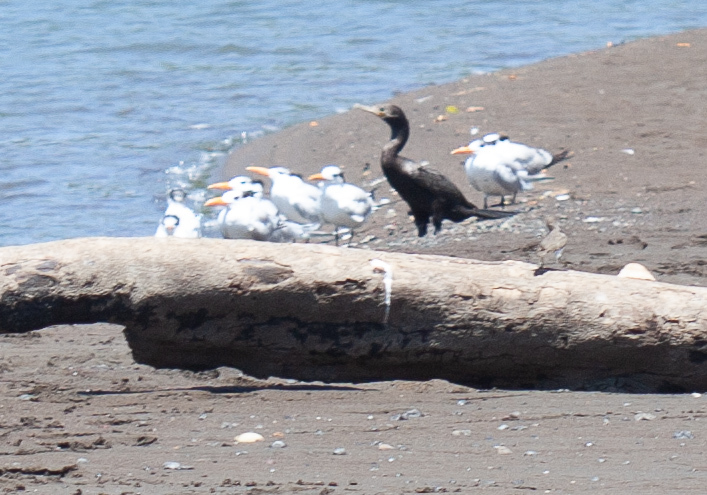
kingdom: Animalia
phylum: Chordata
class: Aves
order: Suliformes
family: Phalacrocoracidae
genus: Phalacrocorax
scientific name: Phalacrocorax brasilianus
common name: Neotropic cormorant
